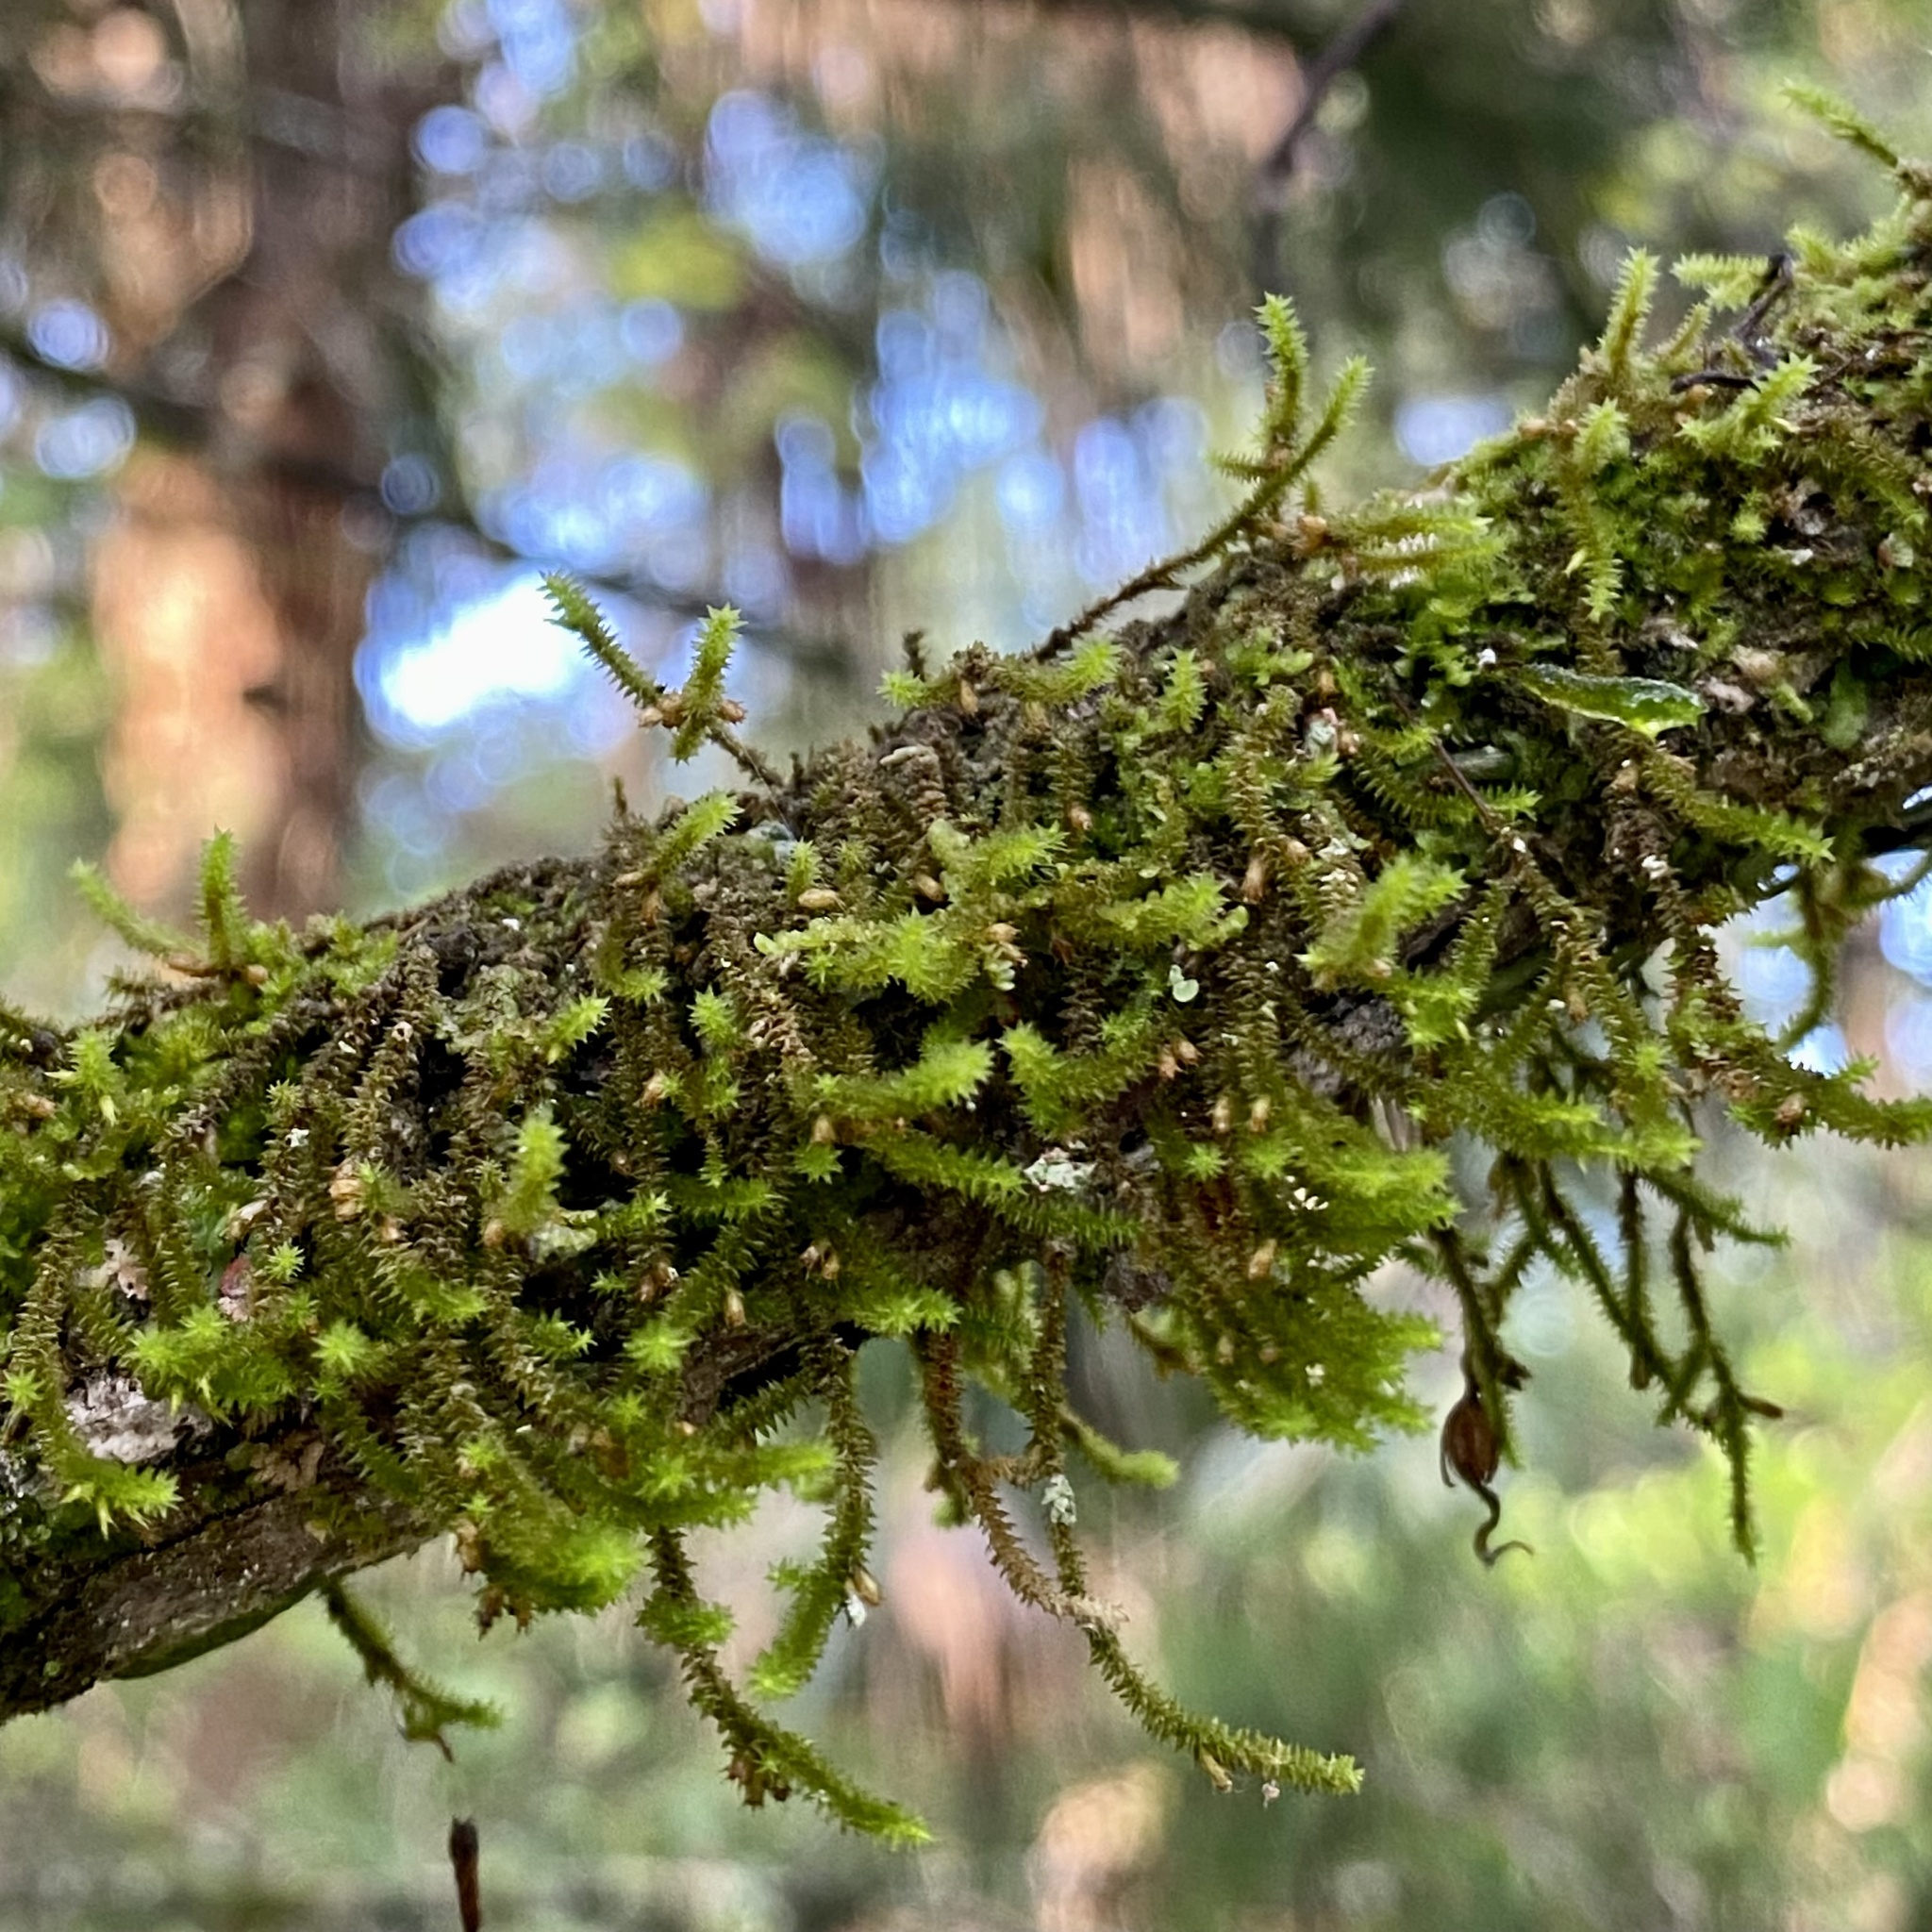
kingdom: Plantae
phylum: Bryophyta
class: Bryopsida
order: Hypnales
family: Cryphaeaceae
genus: Cryphaea
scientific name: Cryphaea glomerata
